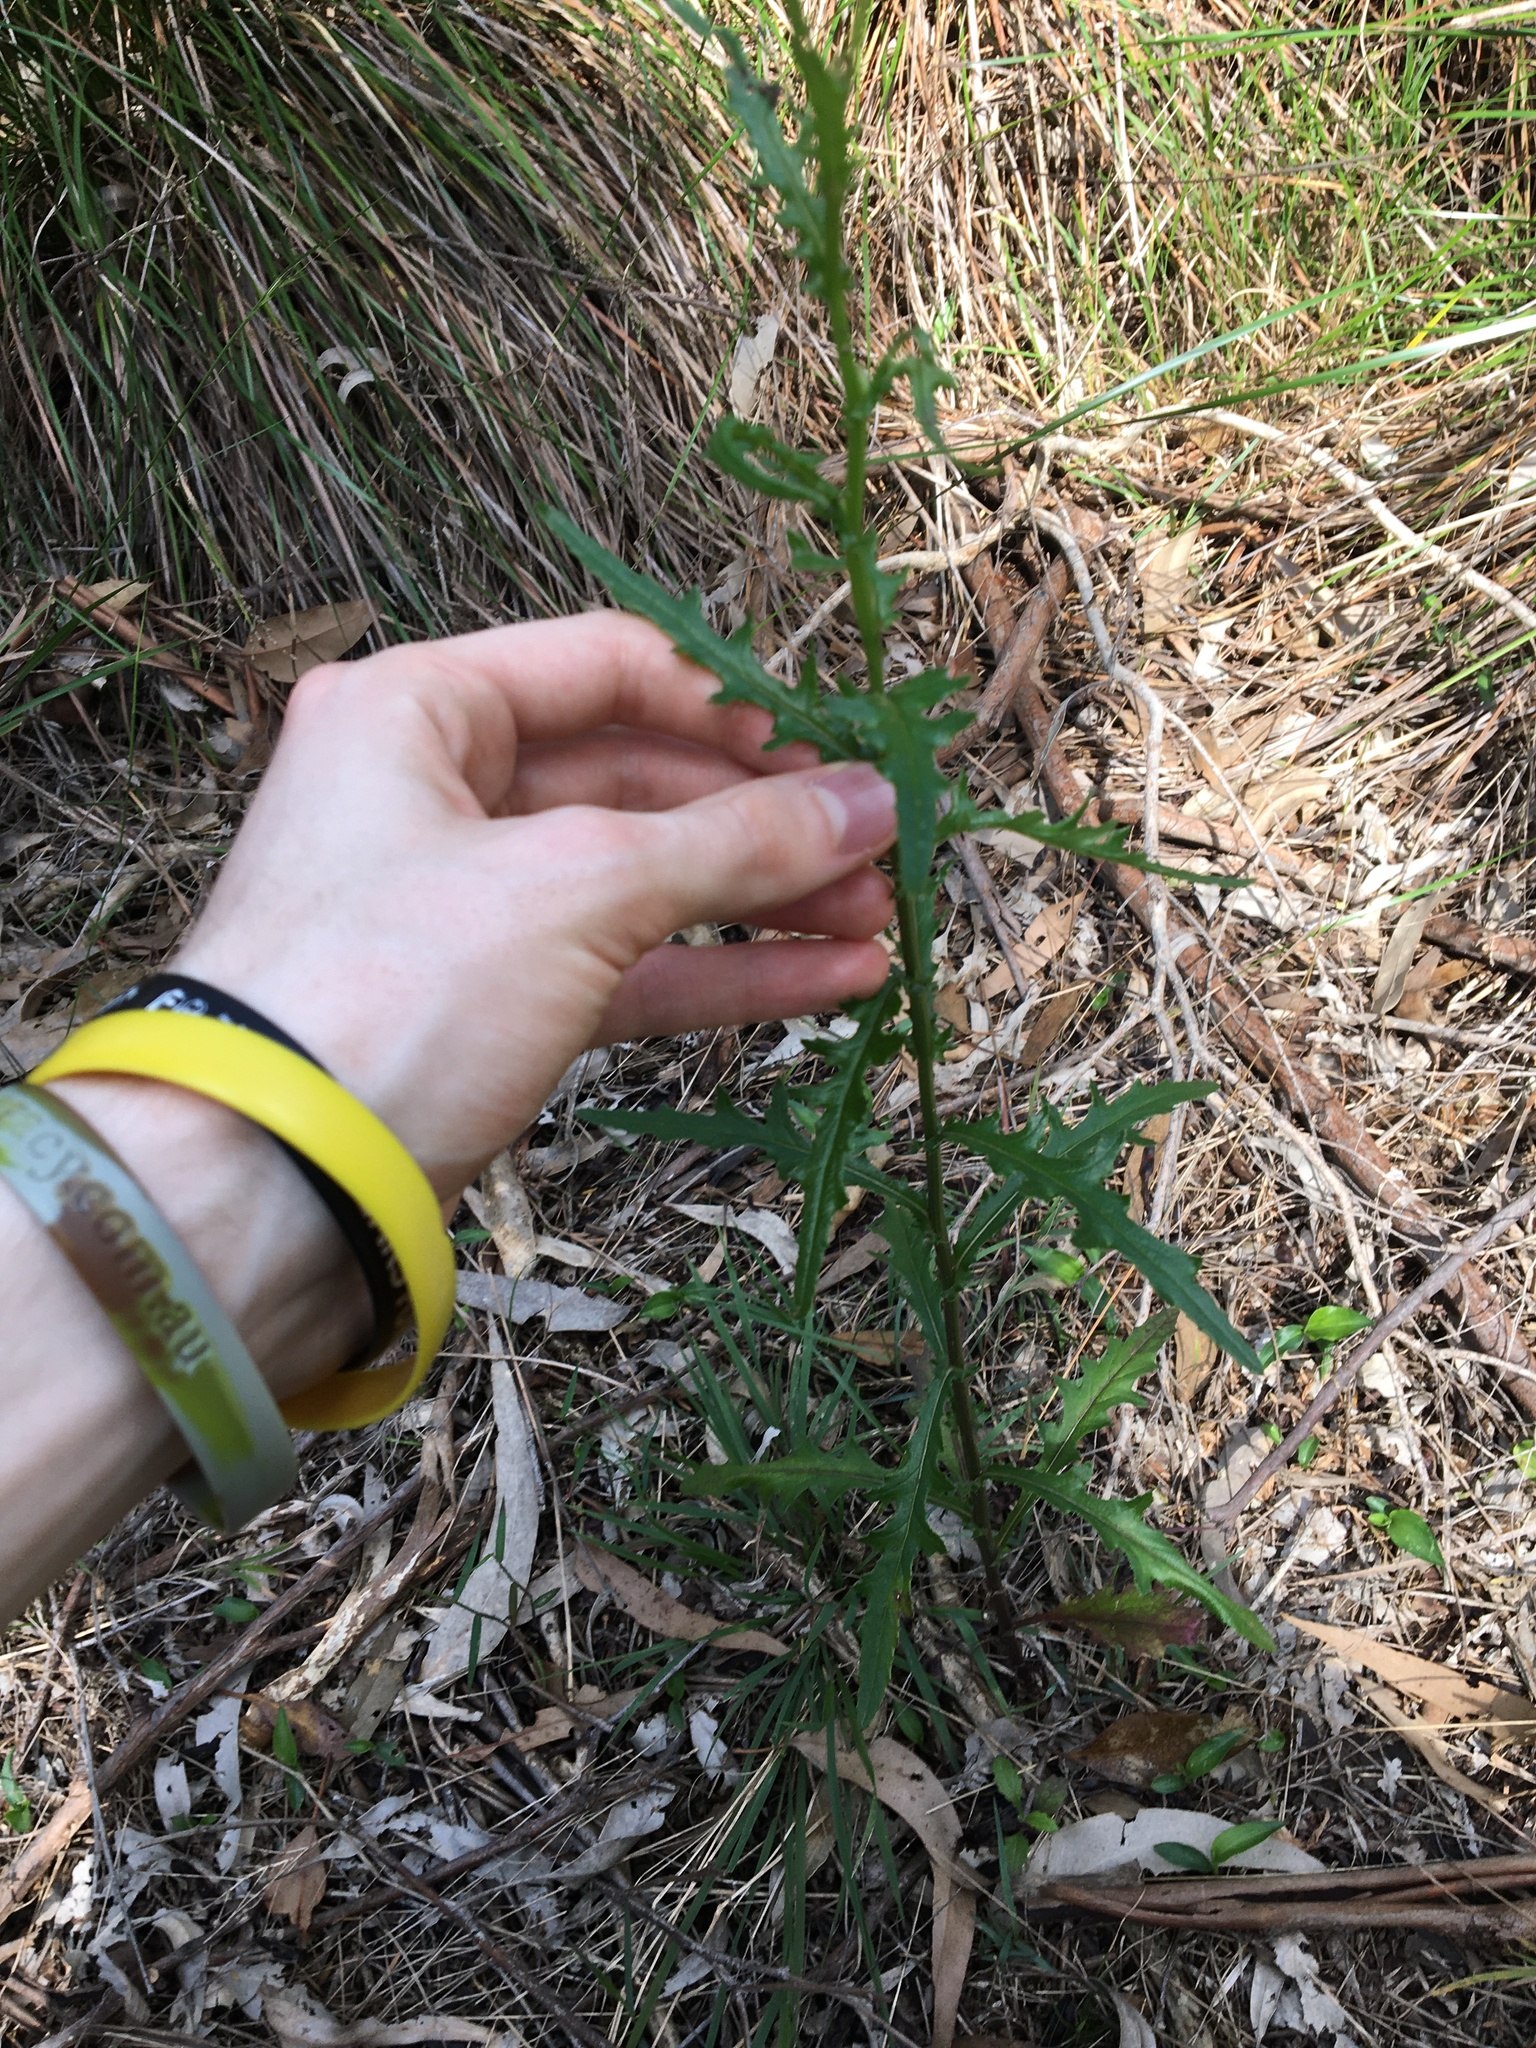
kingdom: Plantae
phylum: Tracheophyta
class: Magnoliopsida
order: Asterales
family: Asteraceae
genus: Senecio
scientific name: Senecio hispidulus
